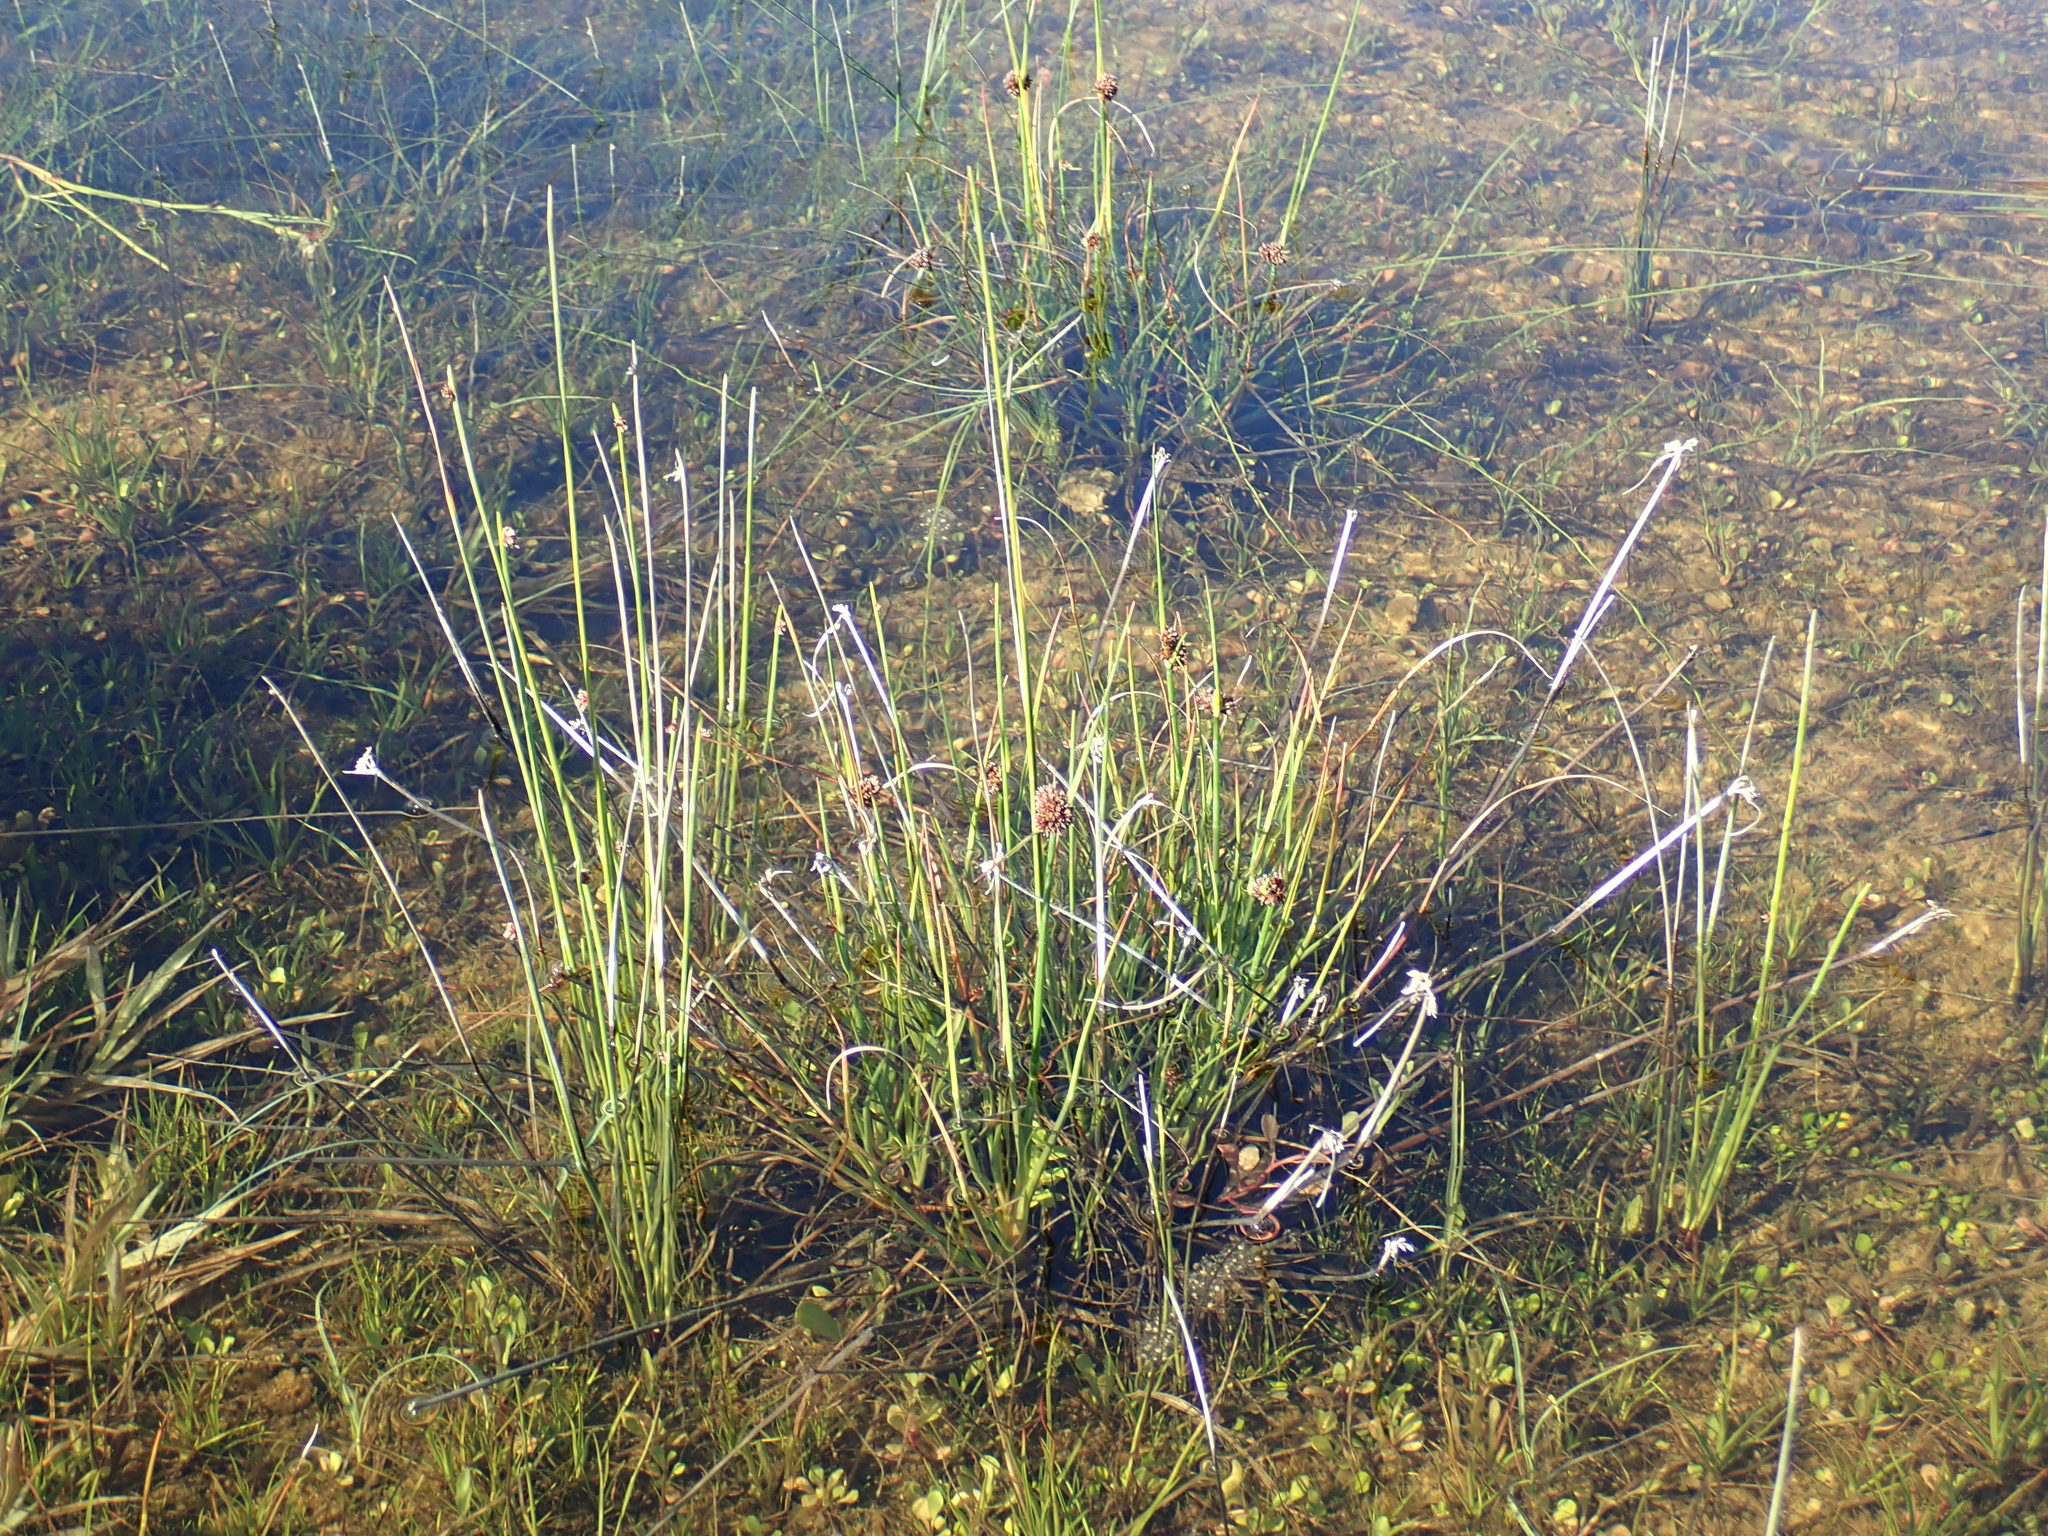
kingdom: Plantae
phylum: Tracheophyta
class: Liliopsida
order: Poales
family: Juncaceae
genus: Juncus
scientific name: Juncus caespiticius
